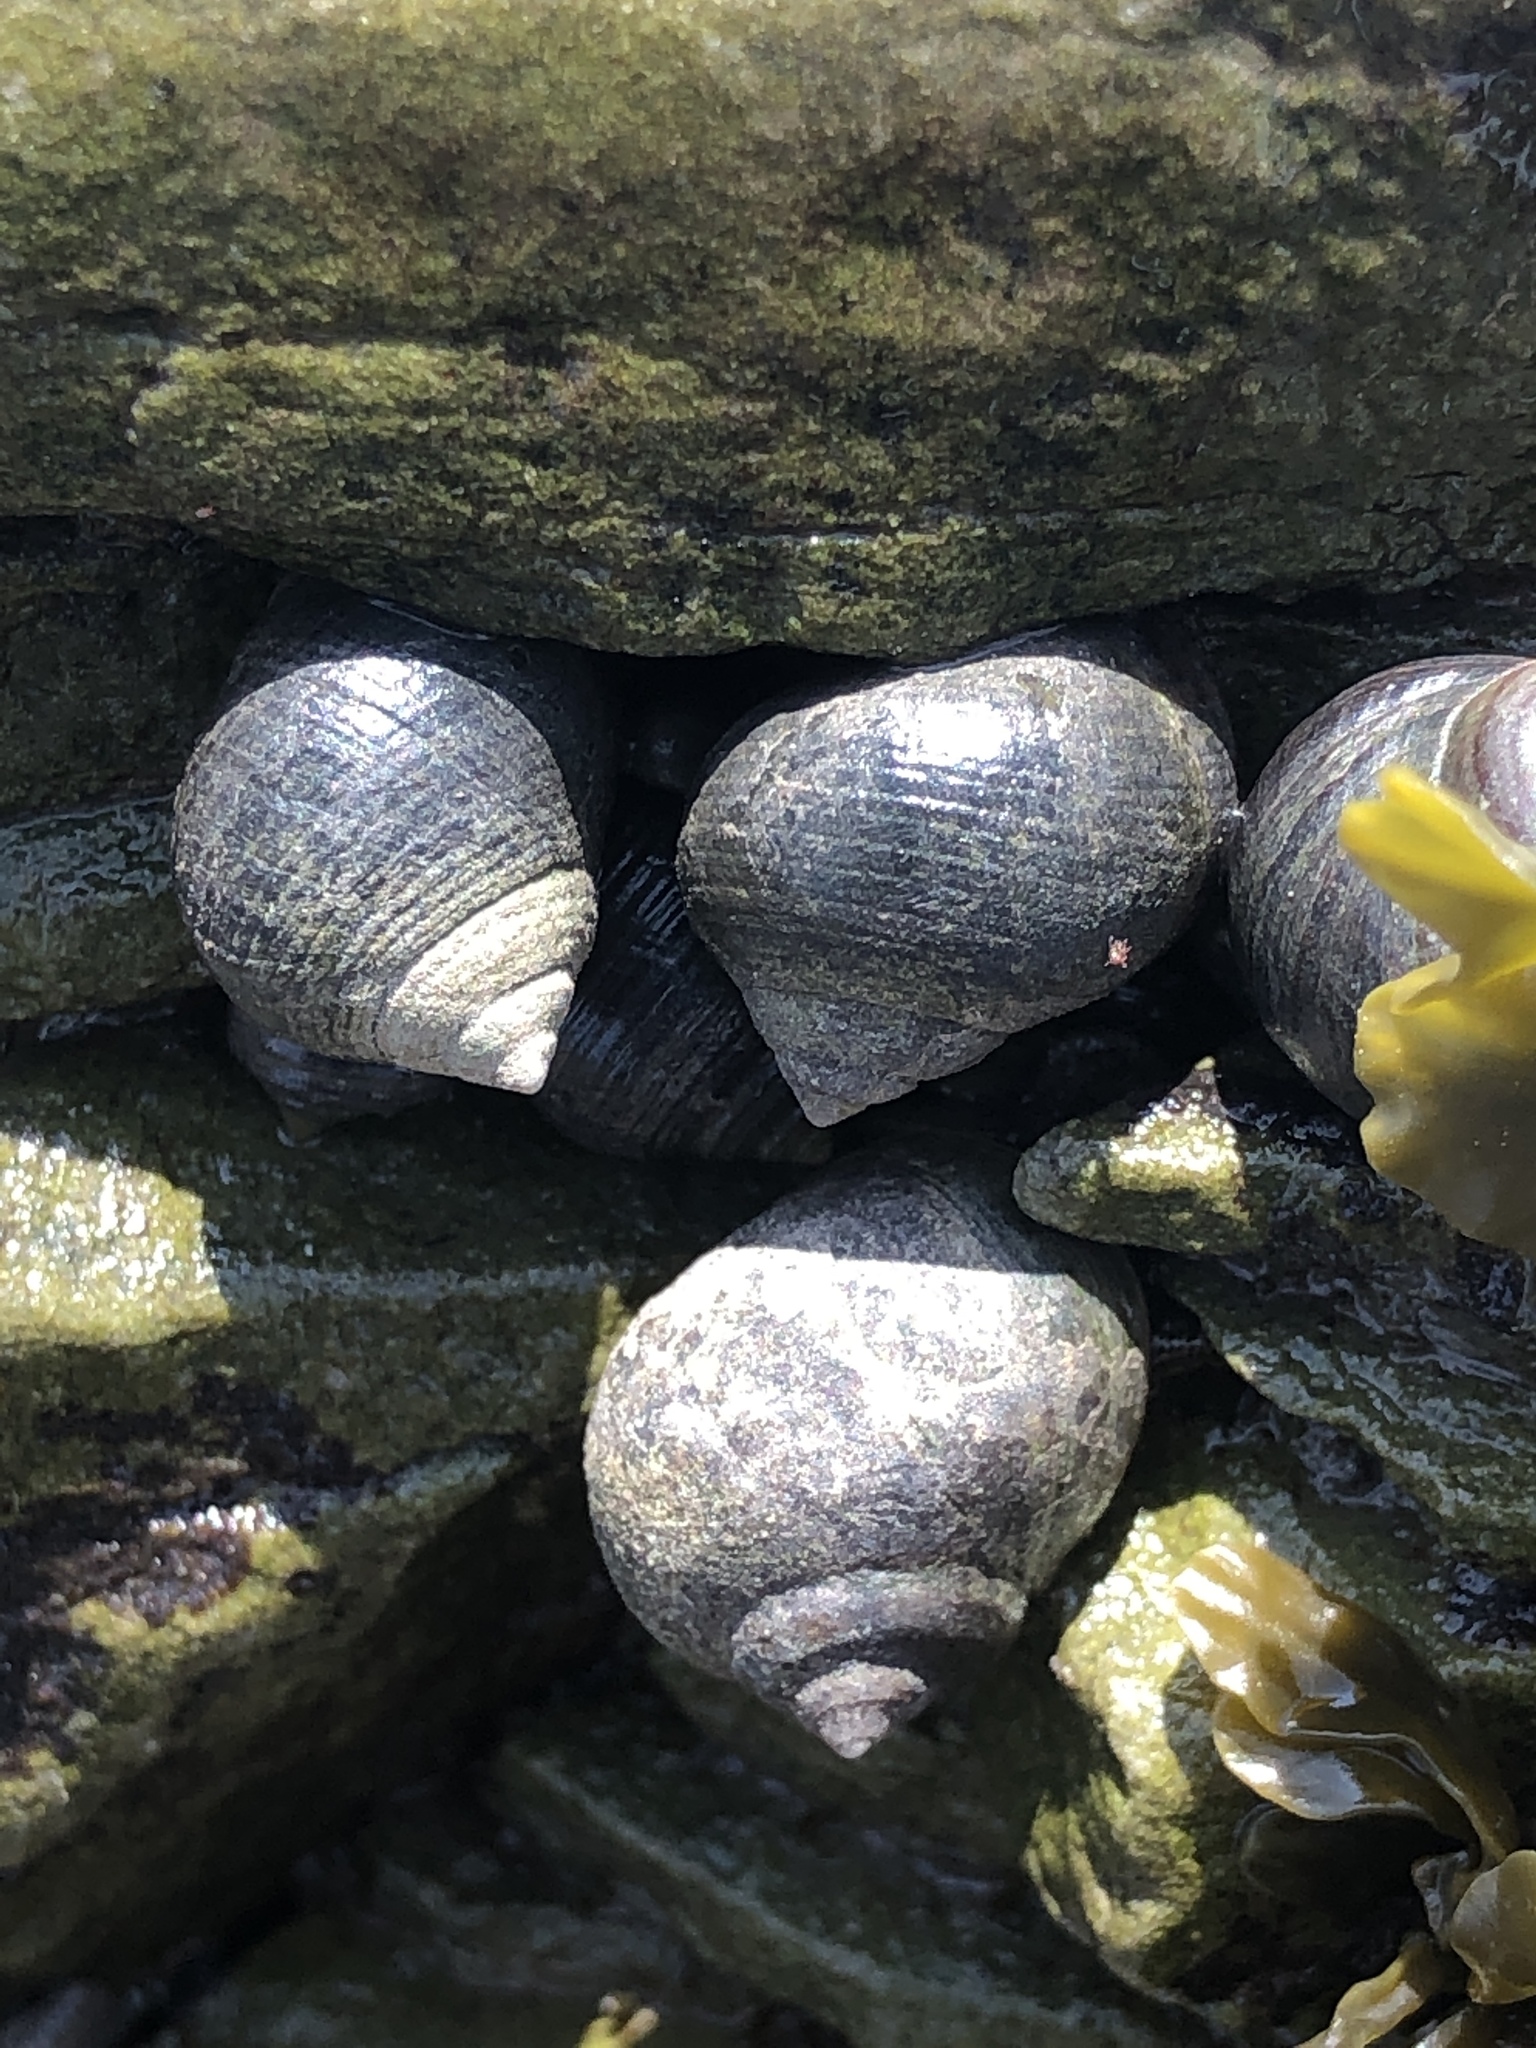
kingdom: Animalia
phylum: Mollusca
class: Gastropoda
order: Littorinimorpha
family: Littorinidae
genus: Littorina
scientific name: Littorina littorea
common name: Common periwinkle
